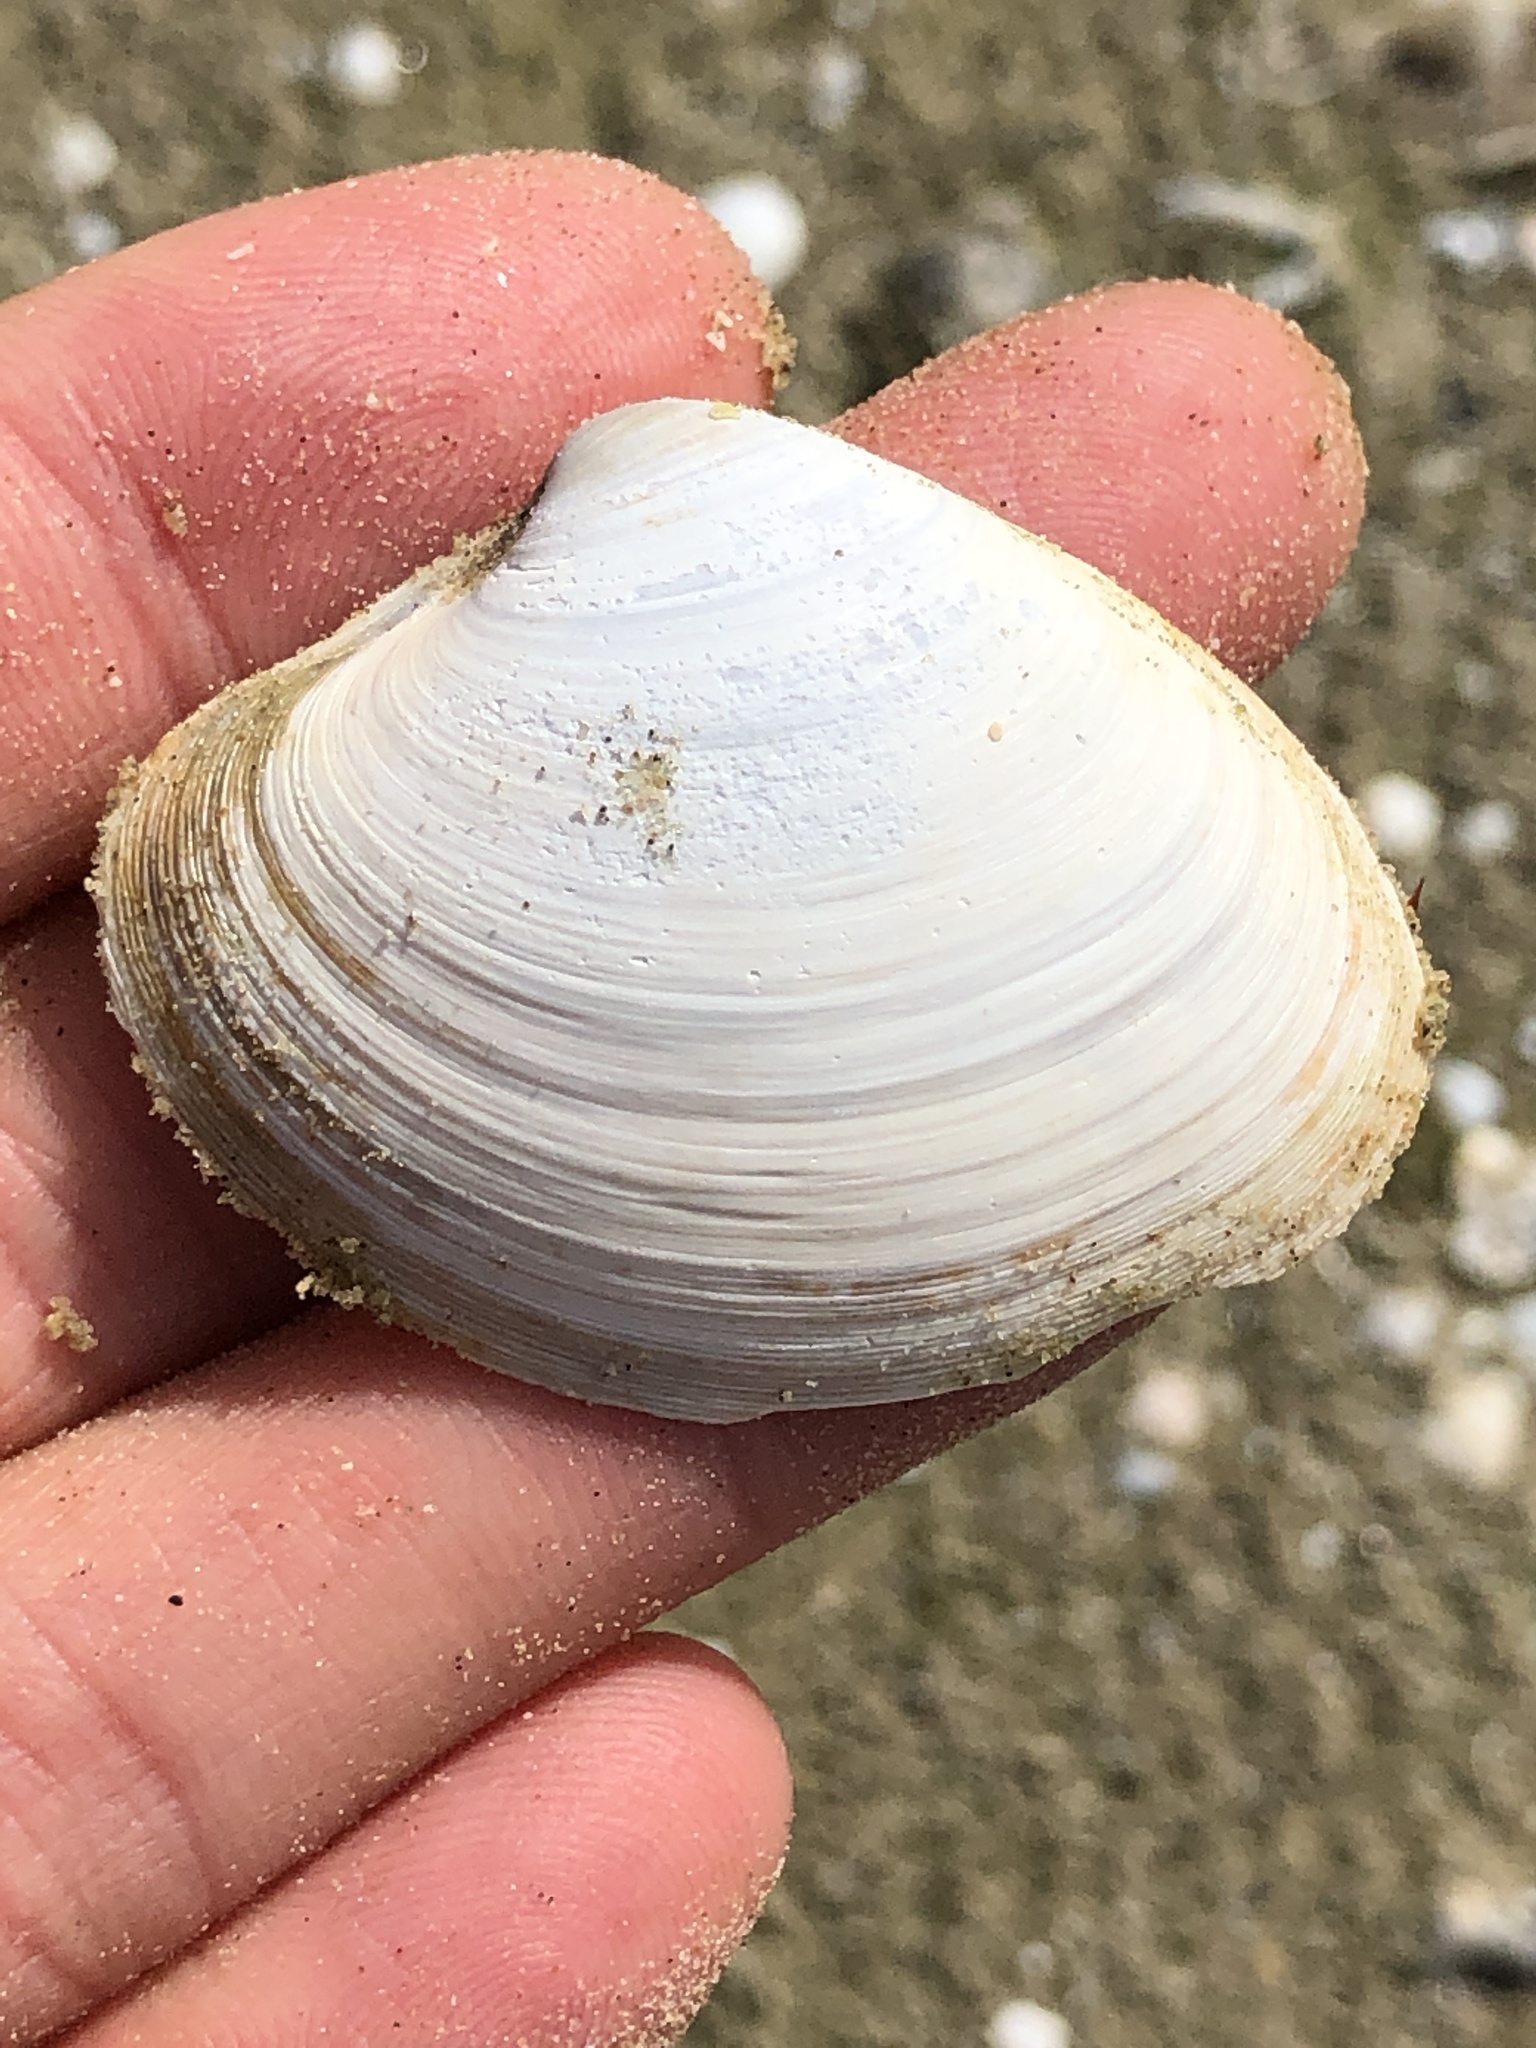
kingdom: Animalia
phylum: Mollusca
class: Bivalvia
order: Venerida
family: Veneridae
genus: Agriopoma
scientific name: Agriopoma texasianum
